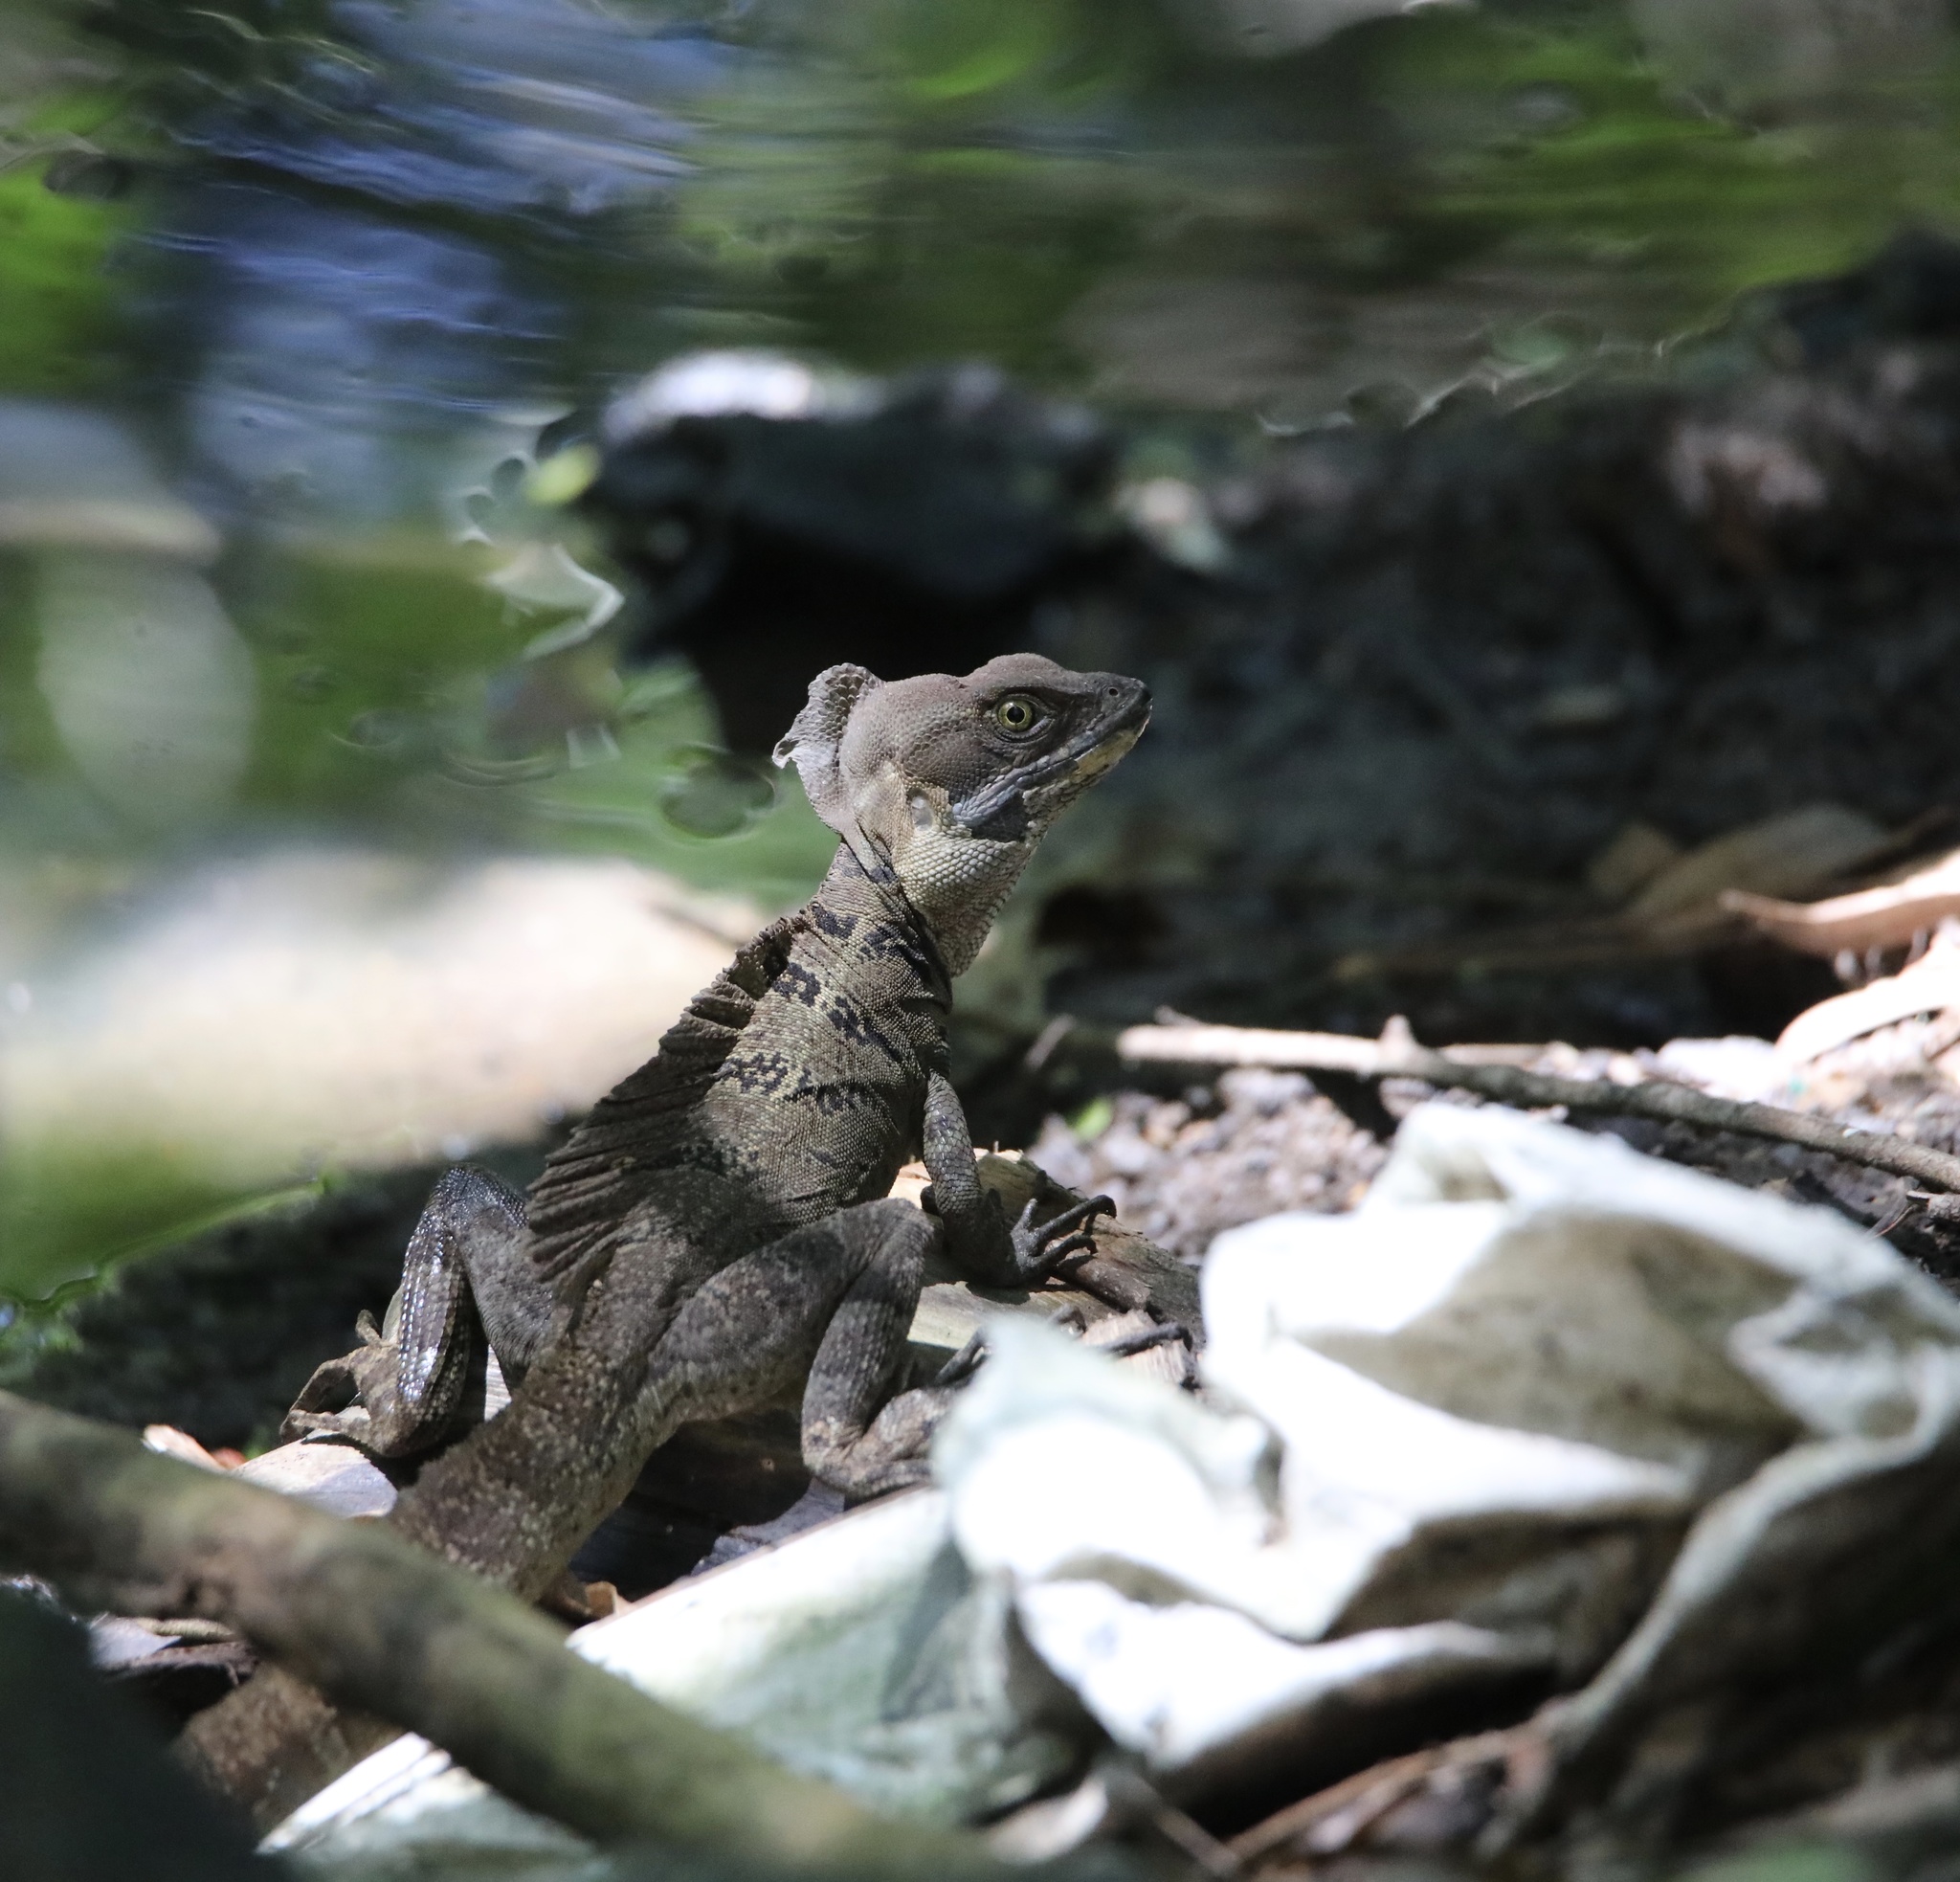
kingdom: Animalia
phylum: Chordata
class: Squamata
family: Corytophanidae
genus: Basiliscus
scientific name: Basiliscus basiliscus
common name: Common basilisk
